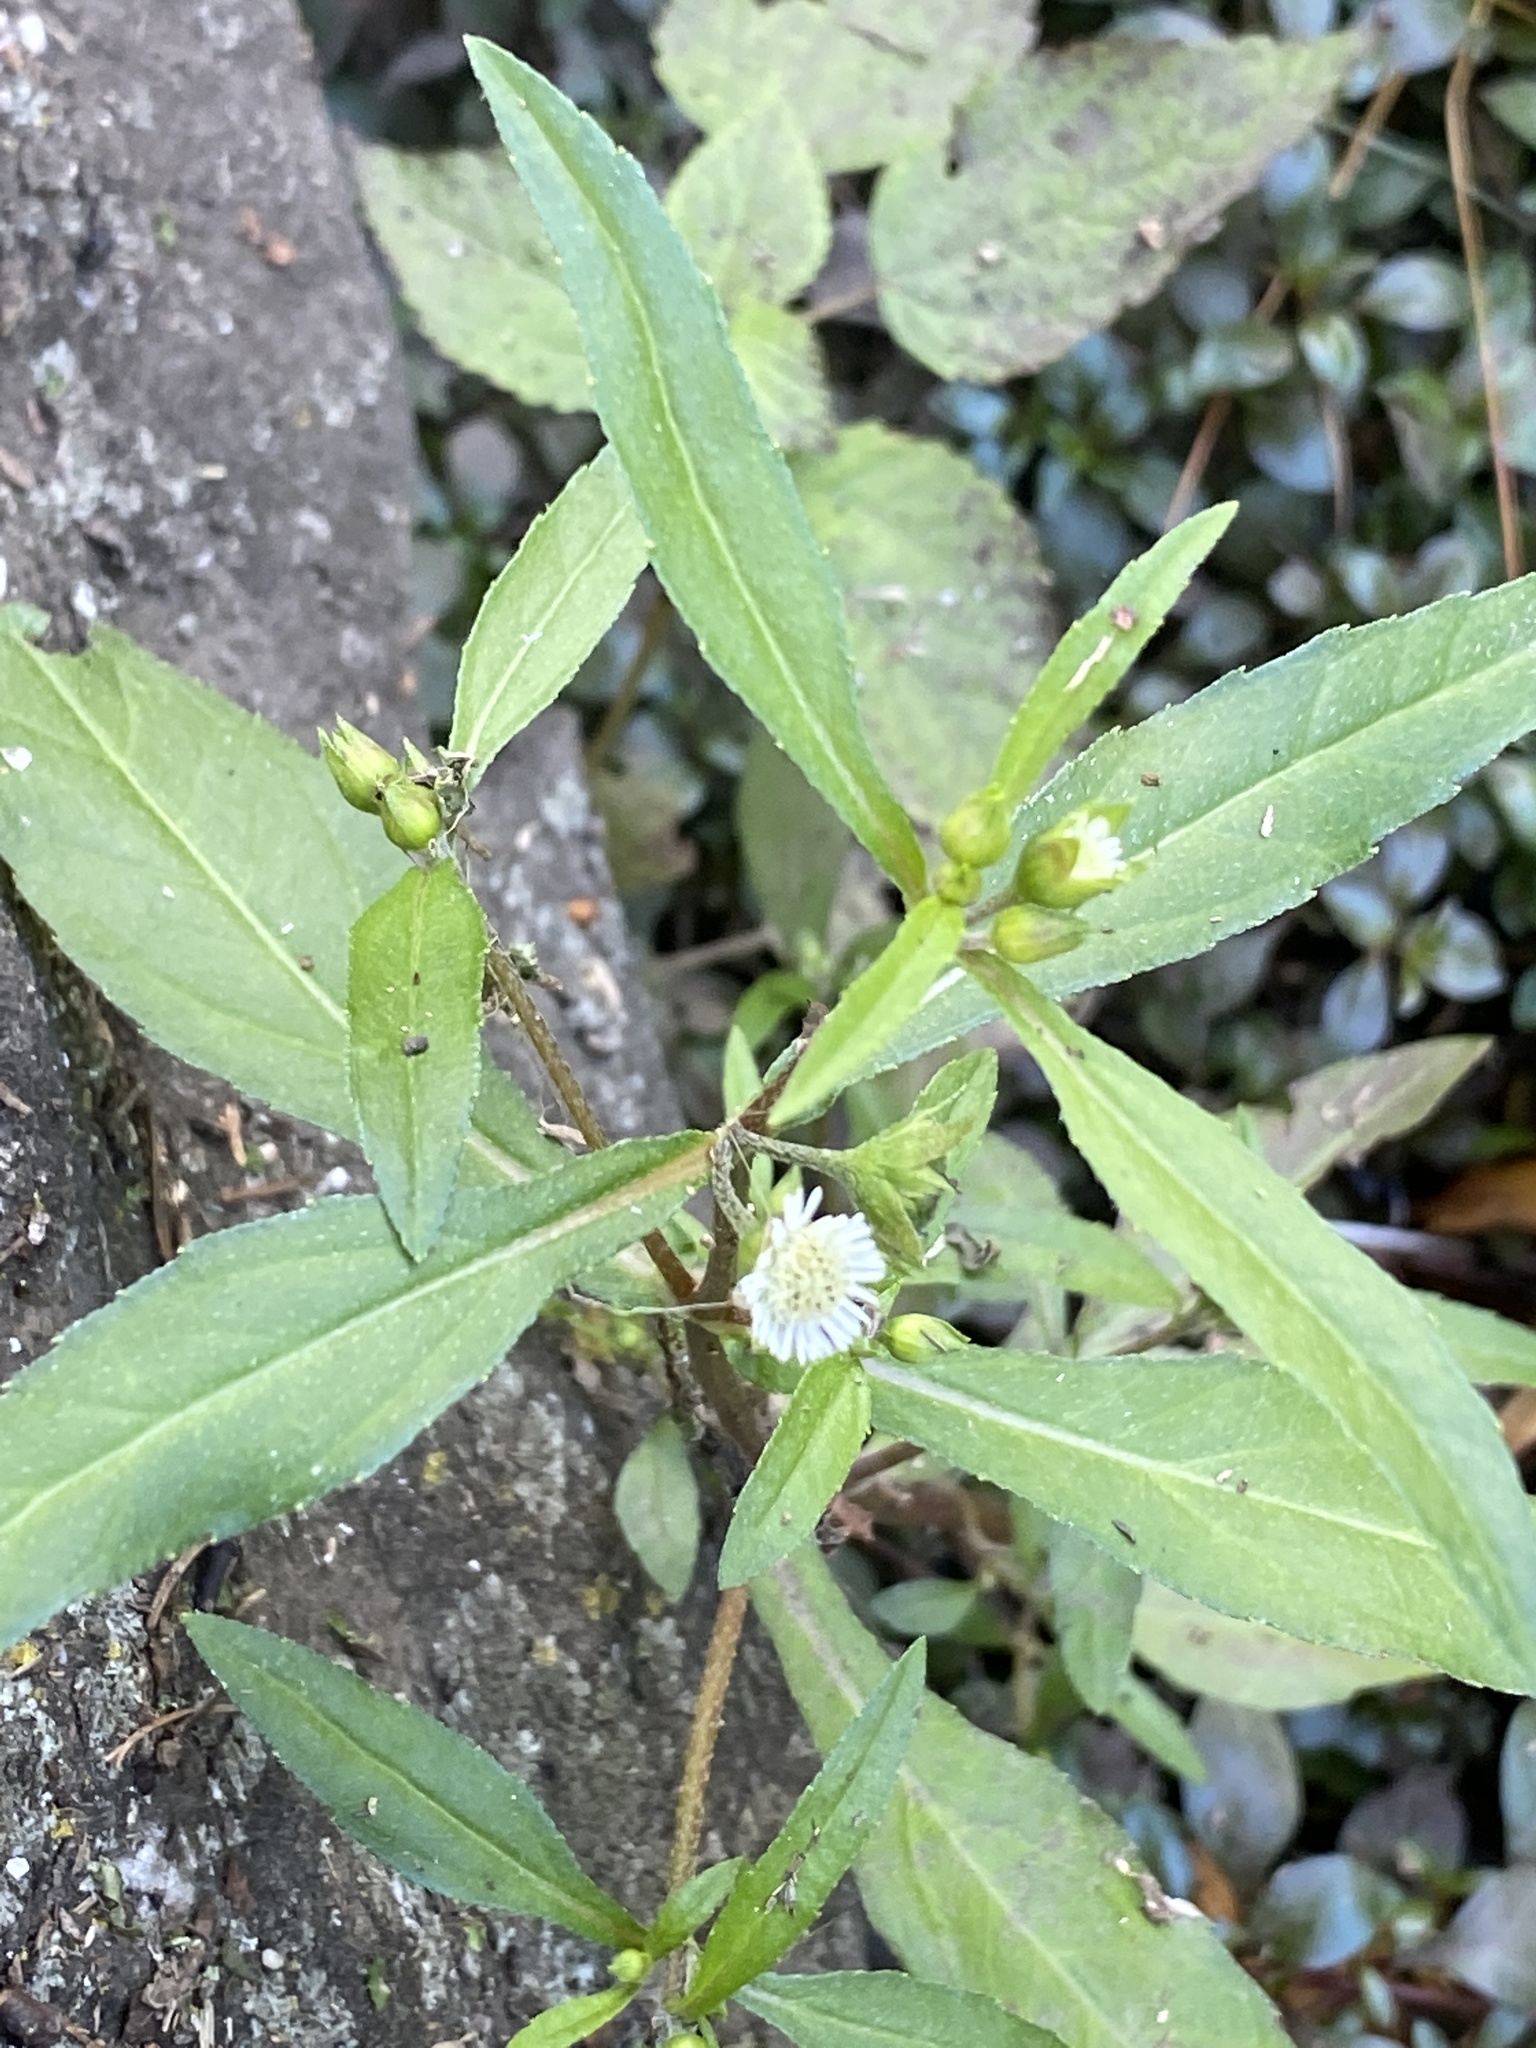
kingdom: Plantae
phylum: Tracheophyta
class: Magnoliopsida
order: Asterales
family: Asteraceae
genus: Eclipta
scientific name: Eclipta prostrata
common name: False daisy
